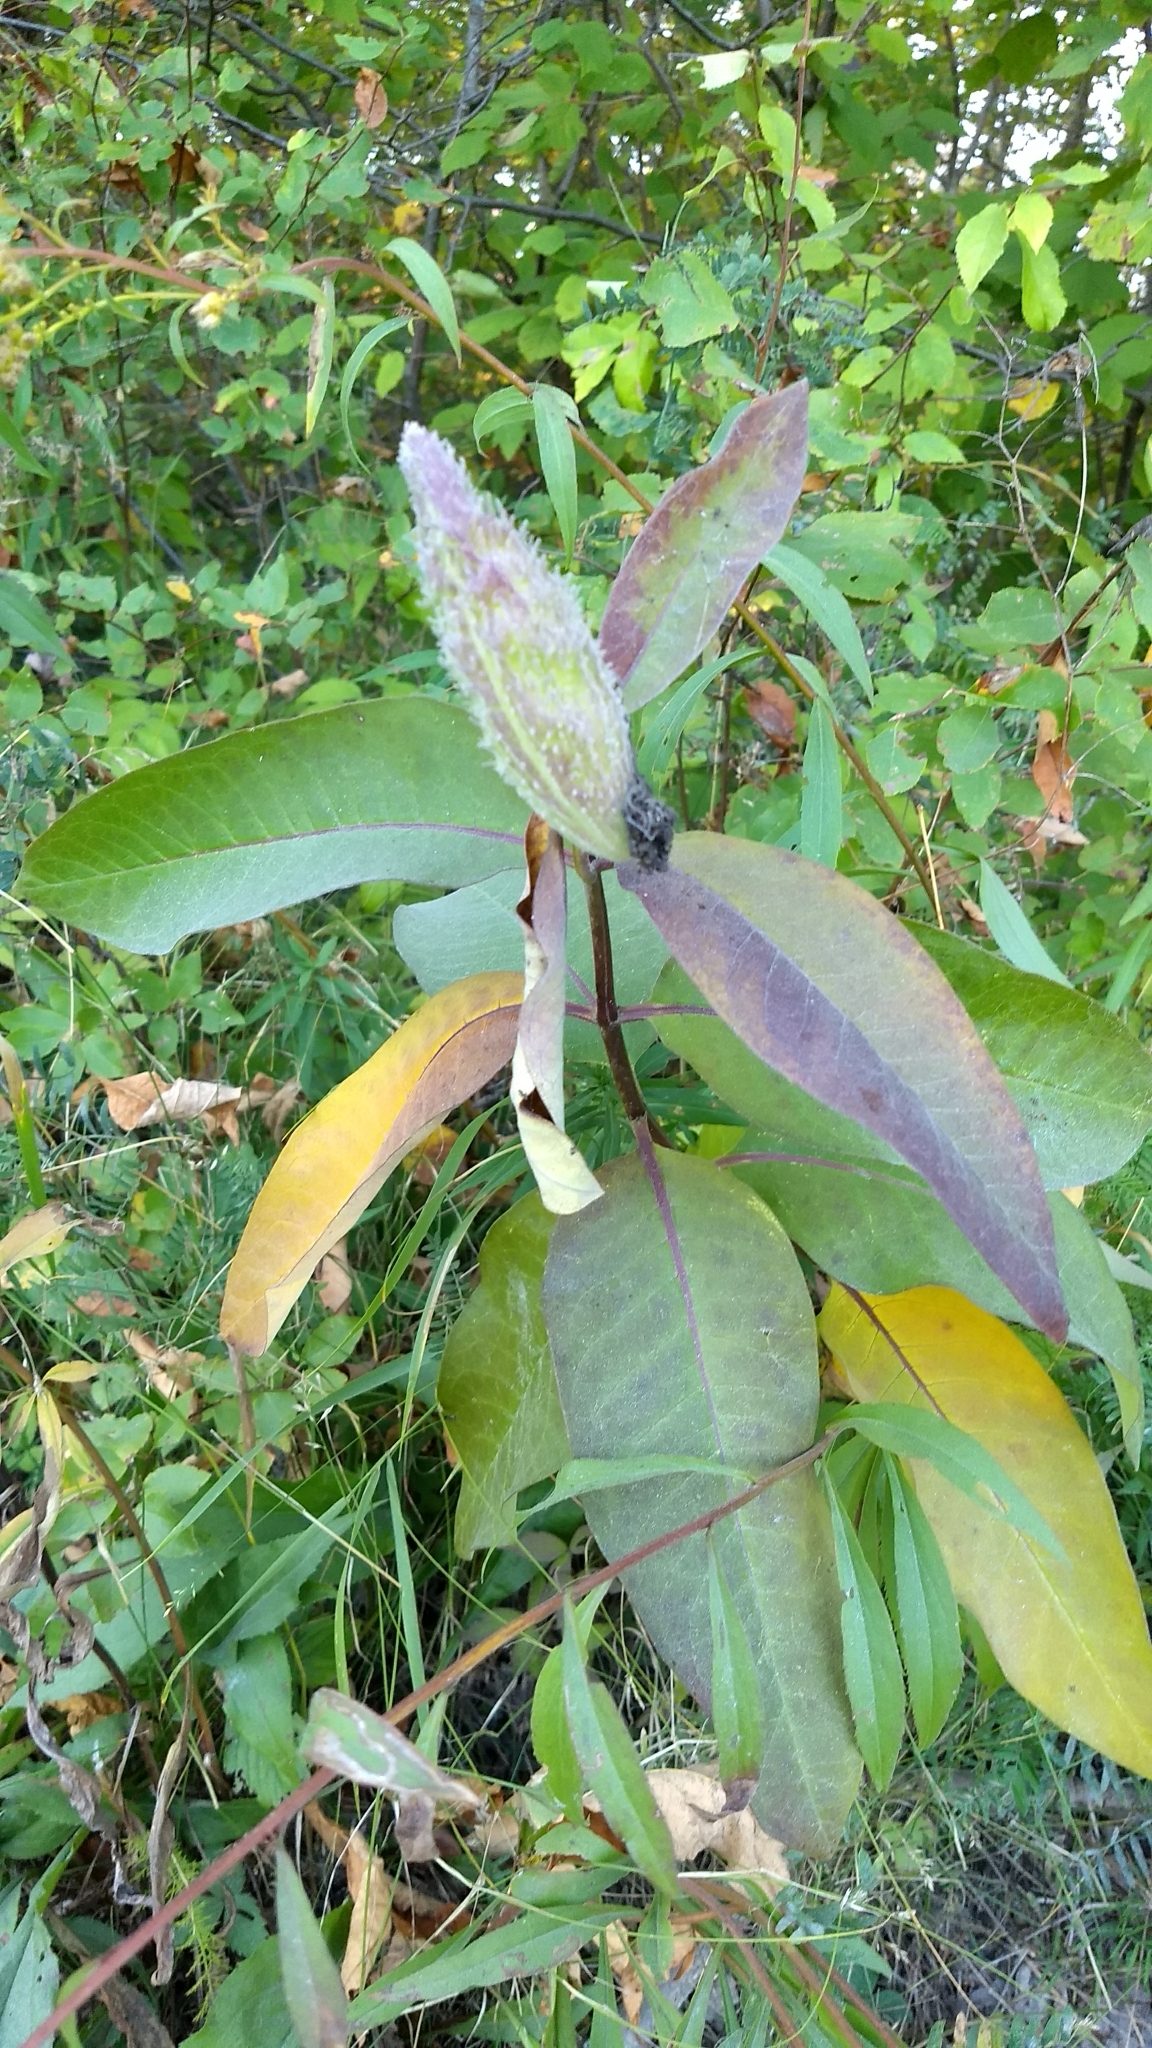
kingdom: Plantae
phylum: Tracheophyta
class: Magnoliopsida
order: Gentianales
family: Apocynaceae
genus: Asclepias
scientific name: Asclepias syriaca
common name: Common milkweed
